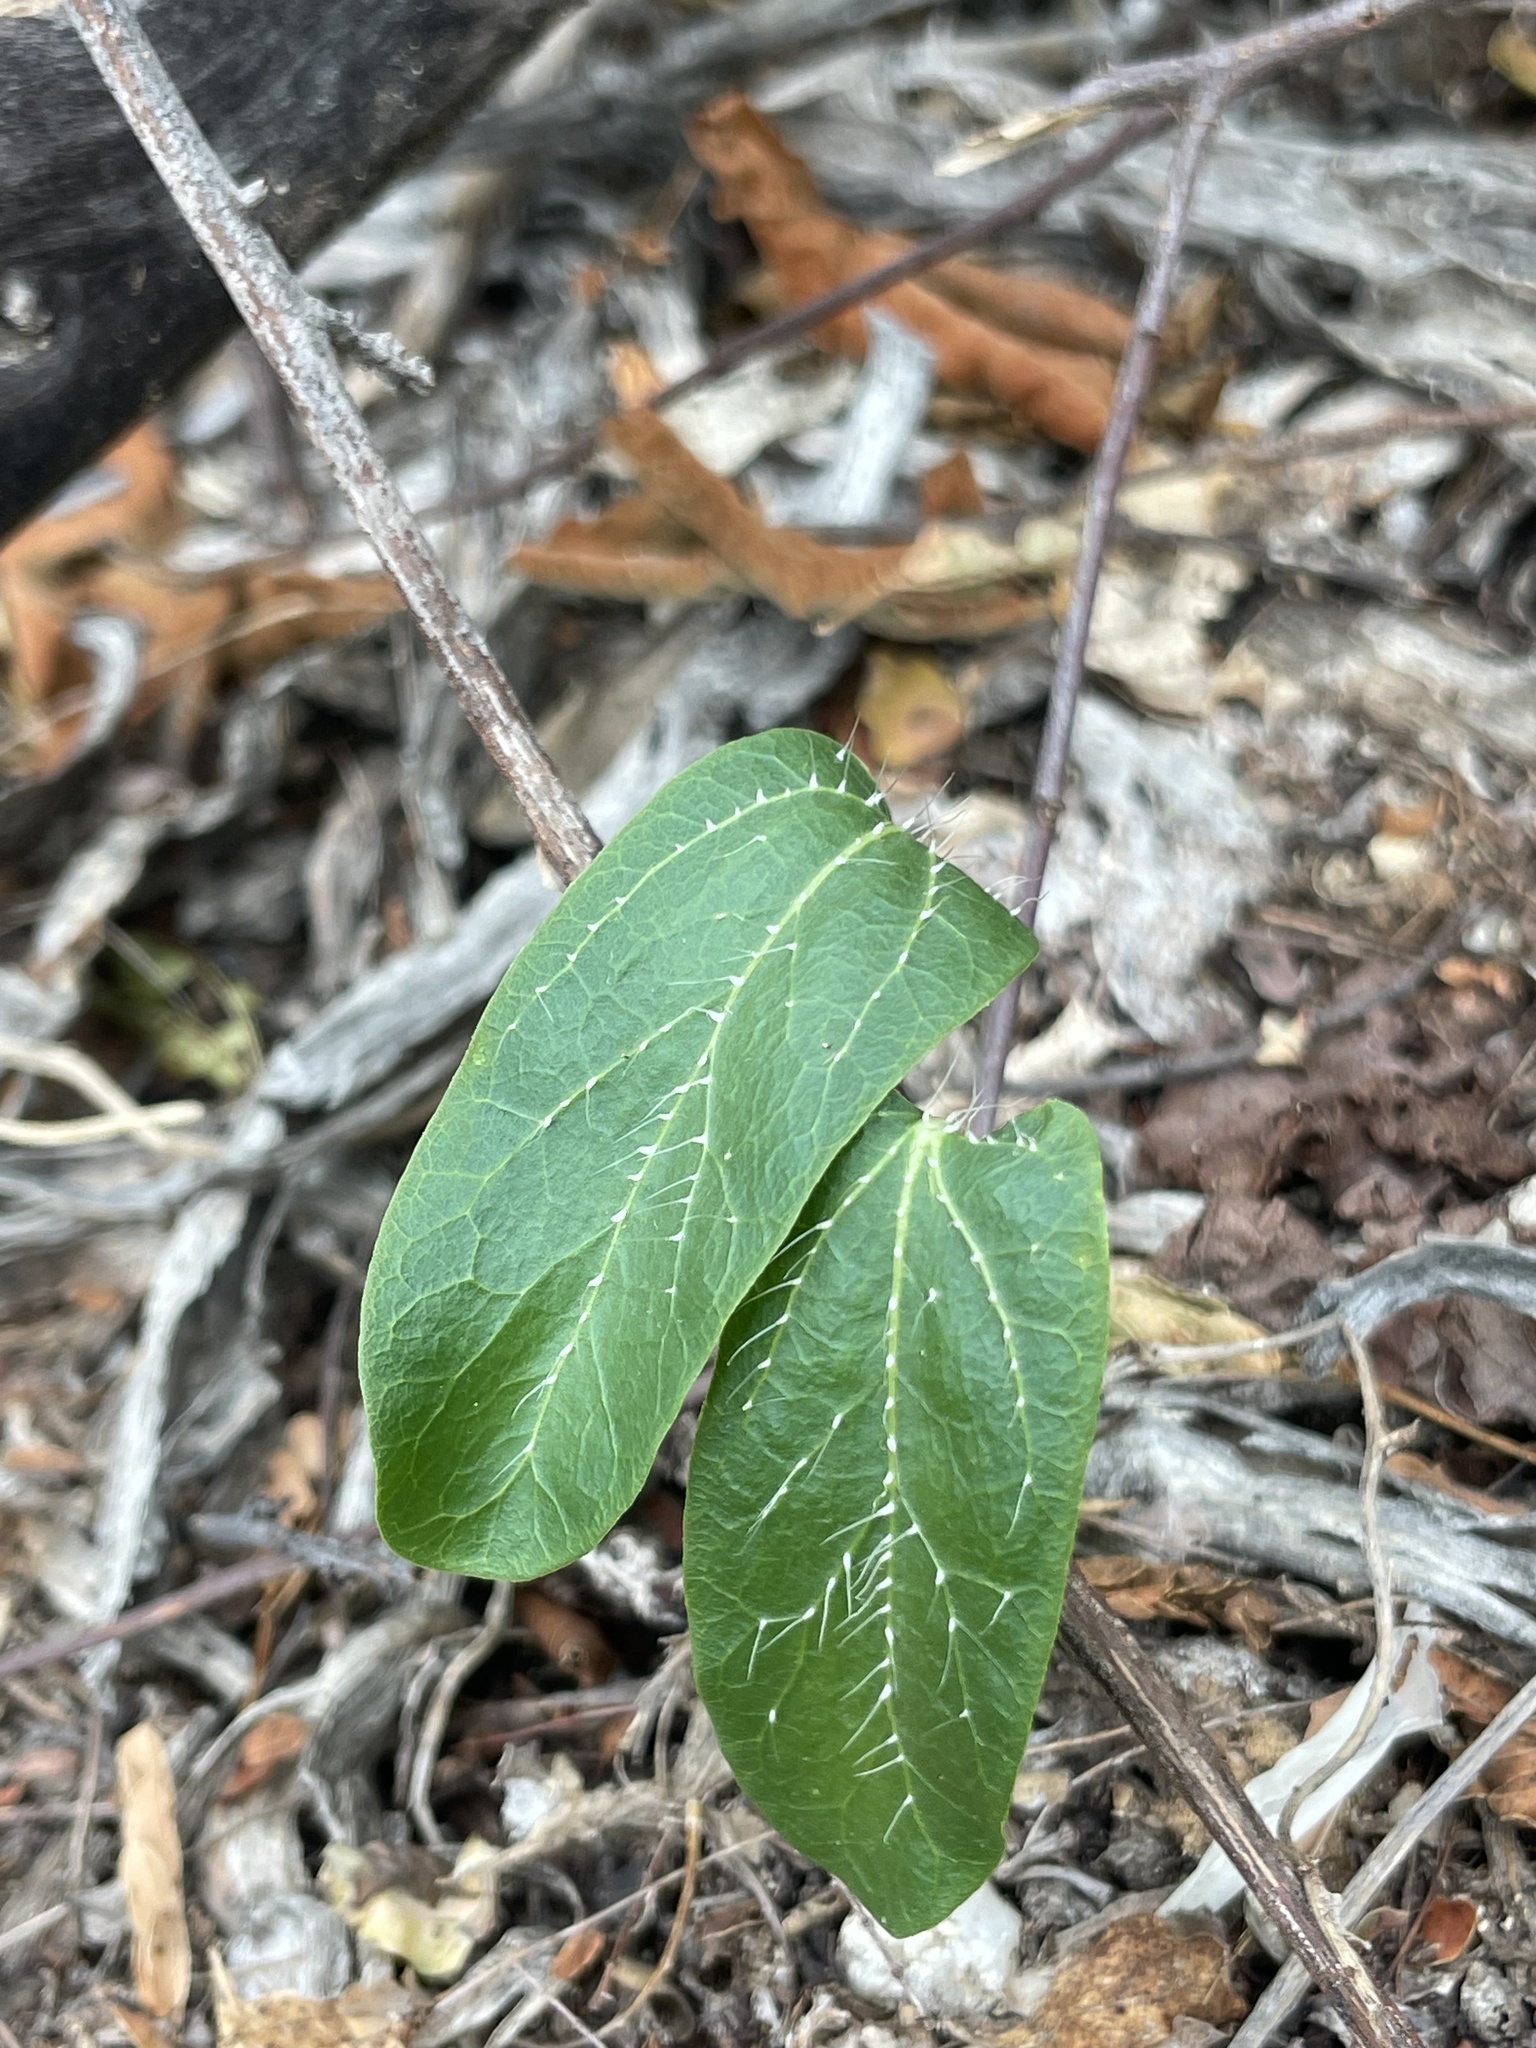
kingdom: Plantae
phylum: Tracheophyta
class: Magnoliopsida
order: Malpighiales
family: Euphorbiaceae
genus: Cnidoscolus
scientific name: Cnidoscolus maculatus
